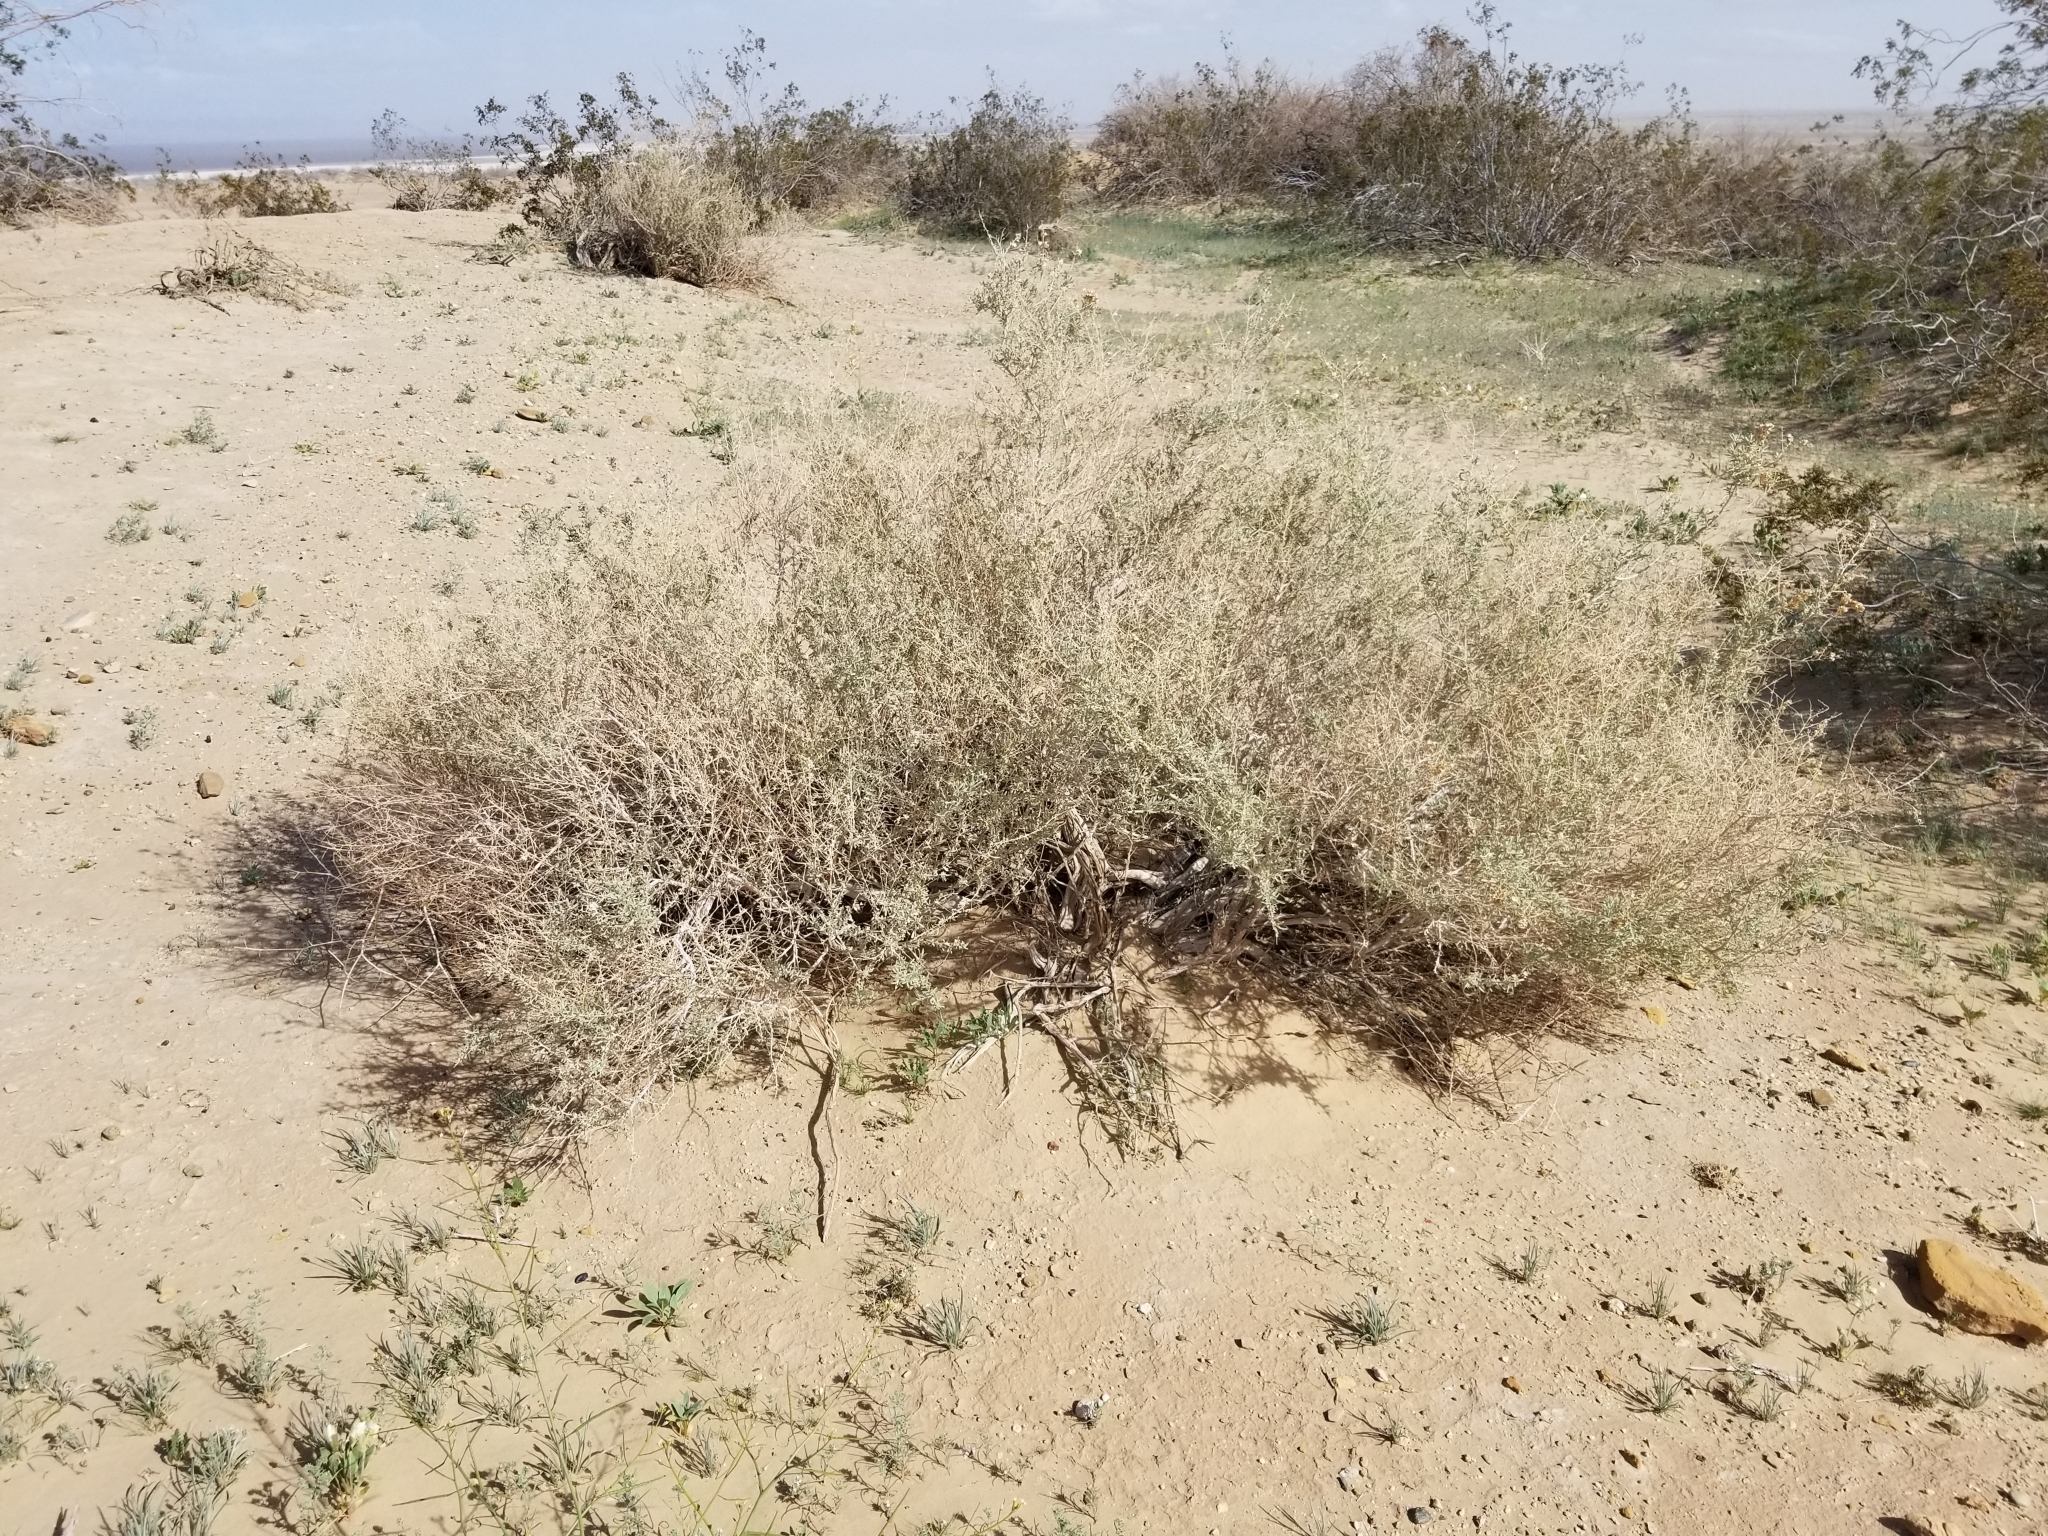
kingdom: Plantae
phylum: Tracheophyta
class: Magnoliopsida
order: Caryophyllales
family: Amaranthaceae
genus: Atriplex
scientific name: Atriplex canescens
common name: Four-wing saltbush
